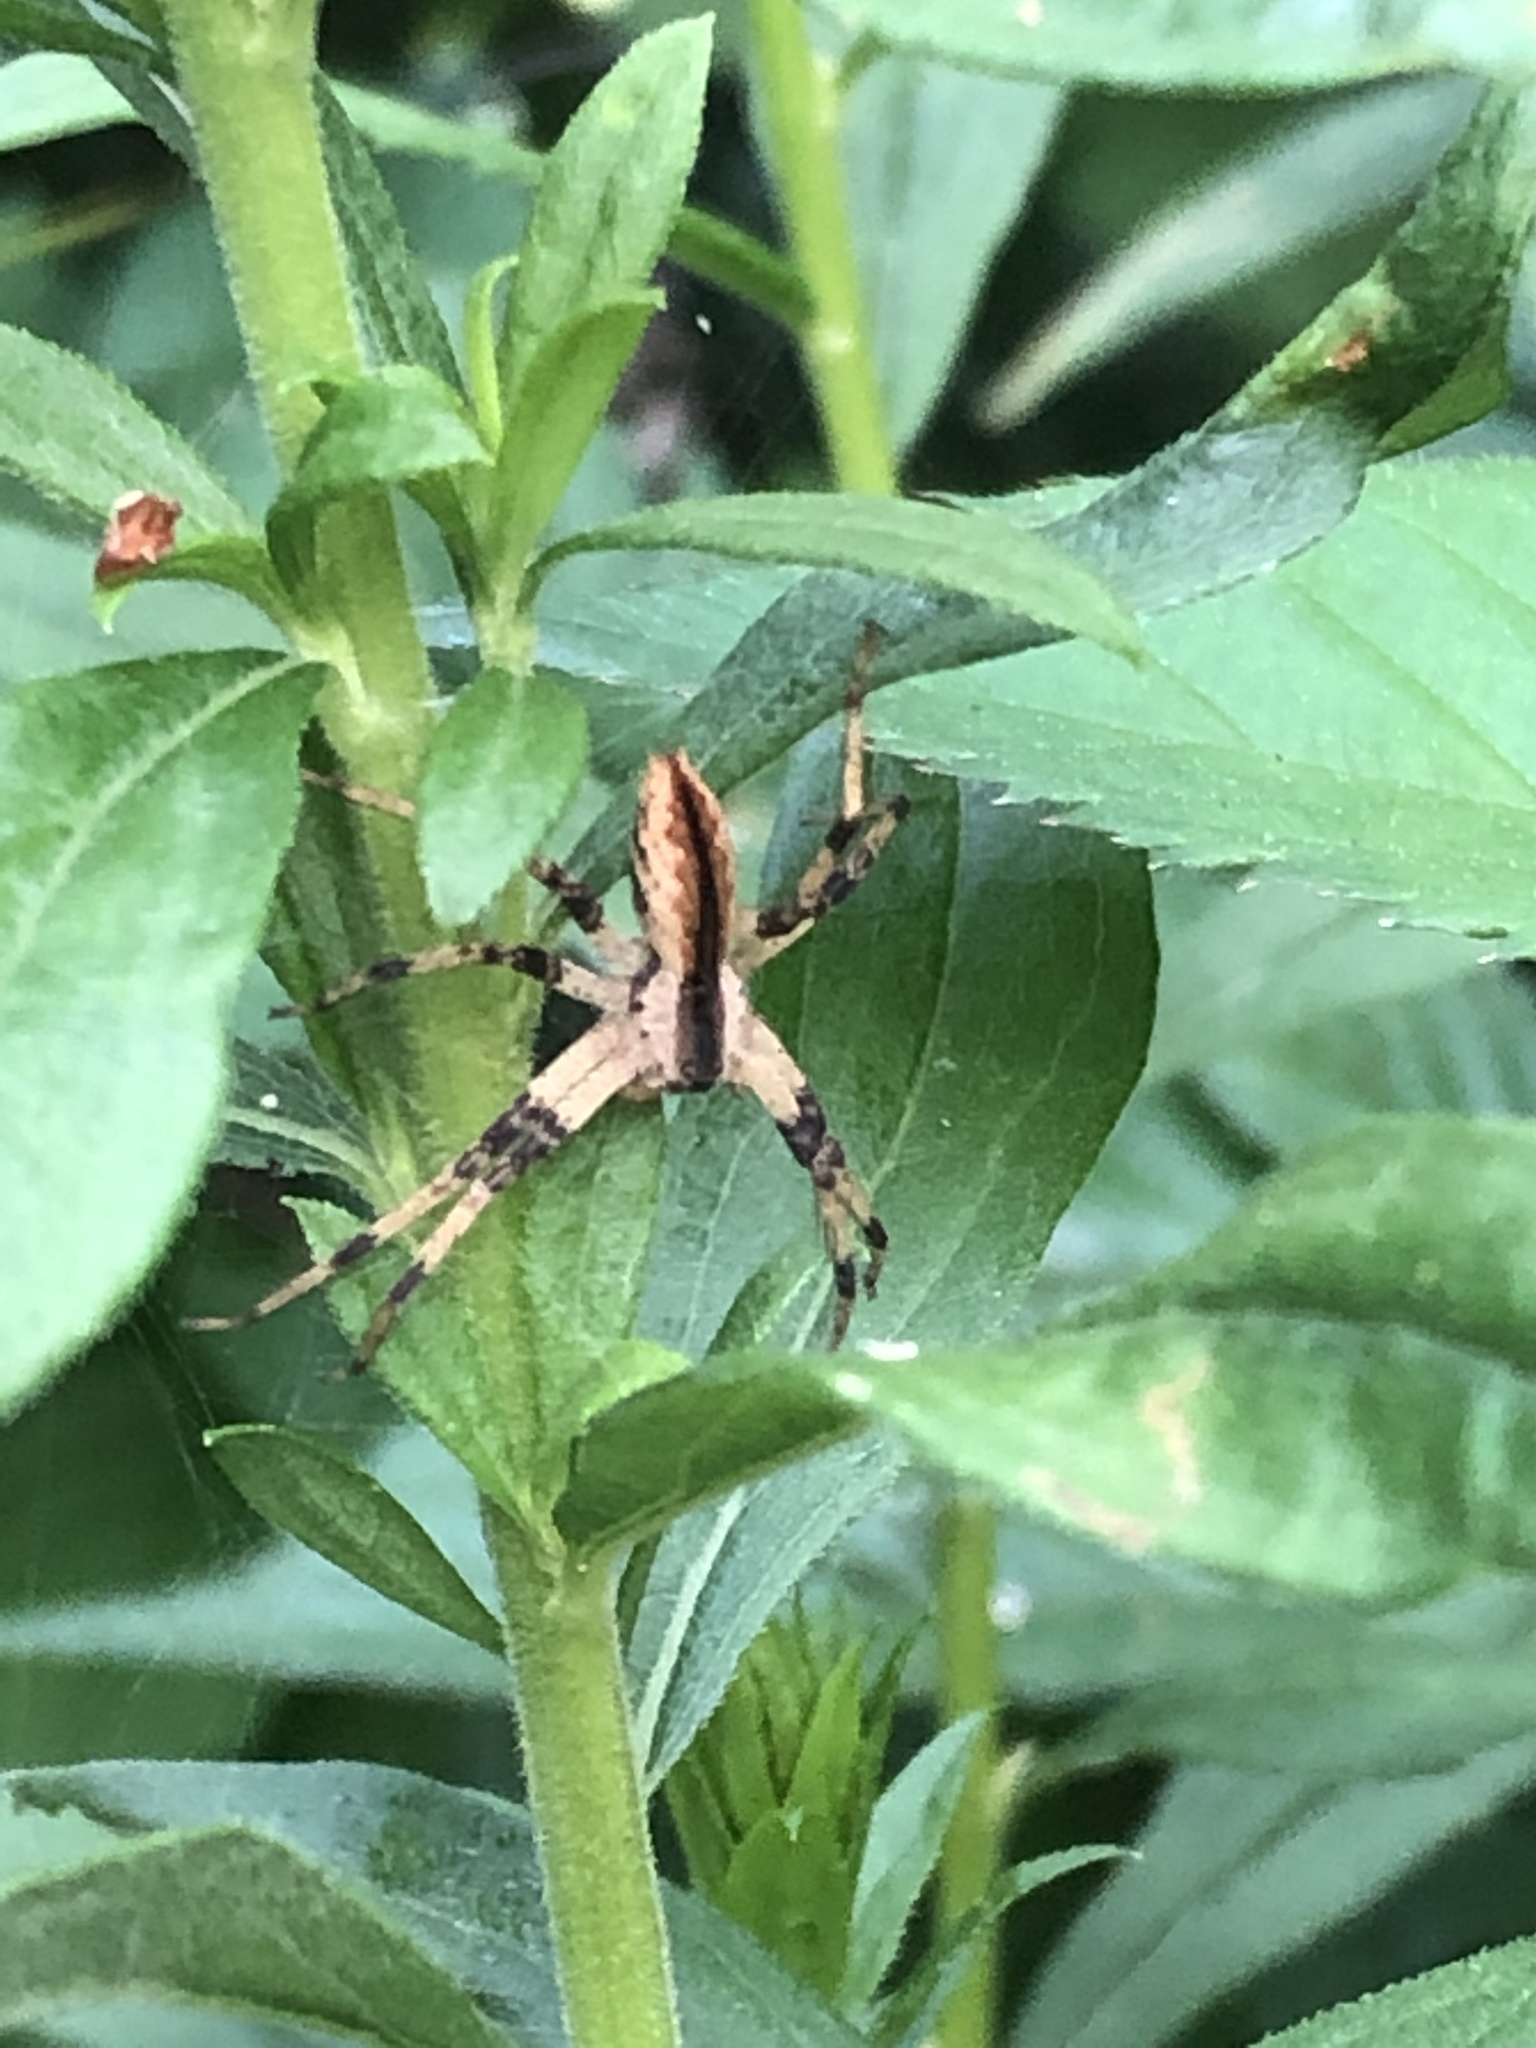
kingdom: Animalia
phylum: Arthropoda
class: Arachnida
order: Araneae
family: Pisauridae
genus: Pisaurina
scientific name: Pisaurina mira
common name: American nursery web spider
